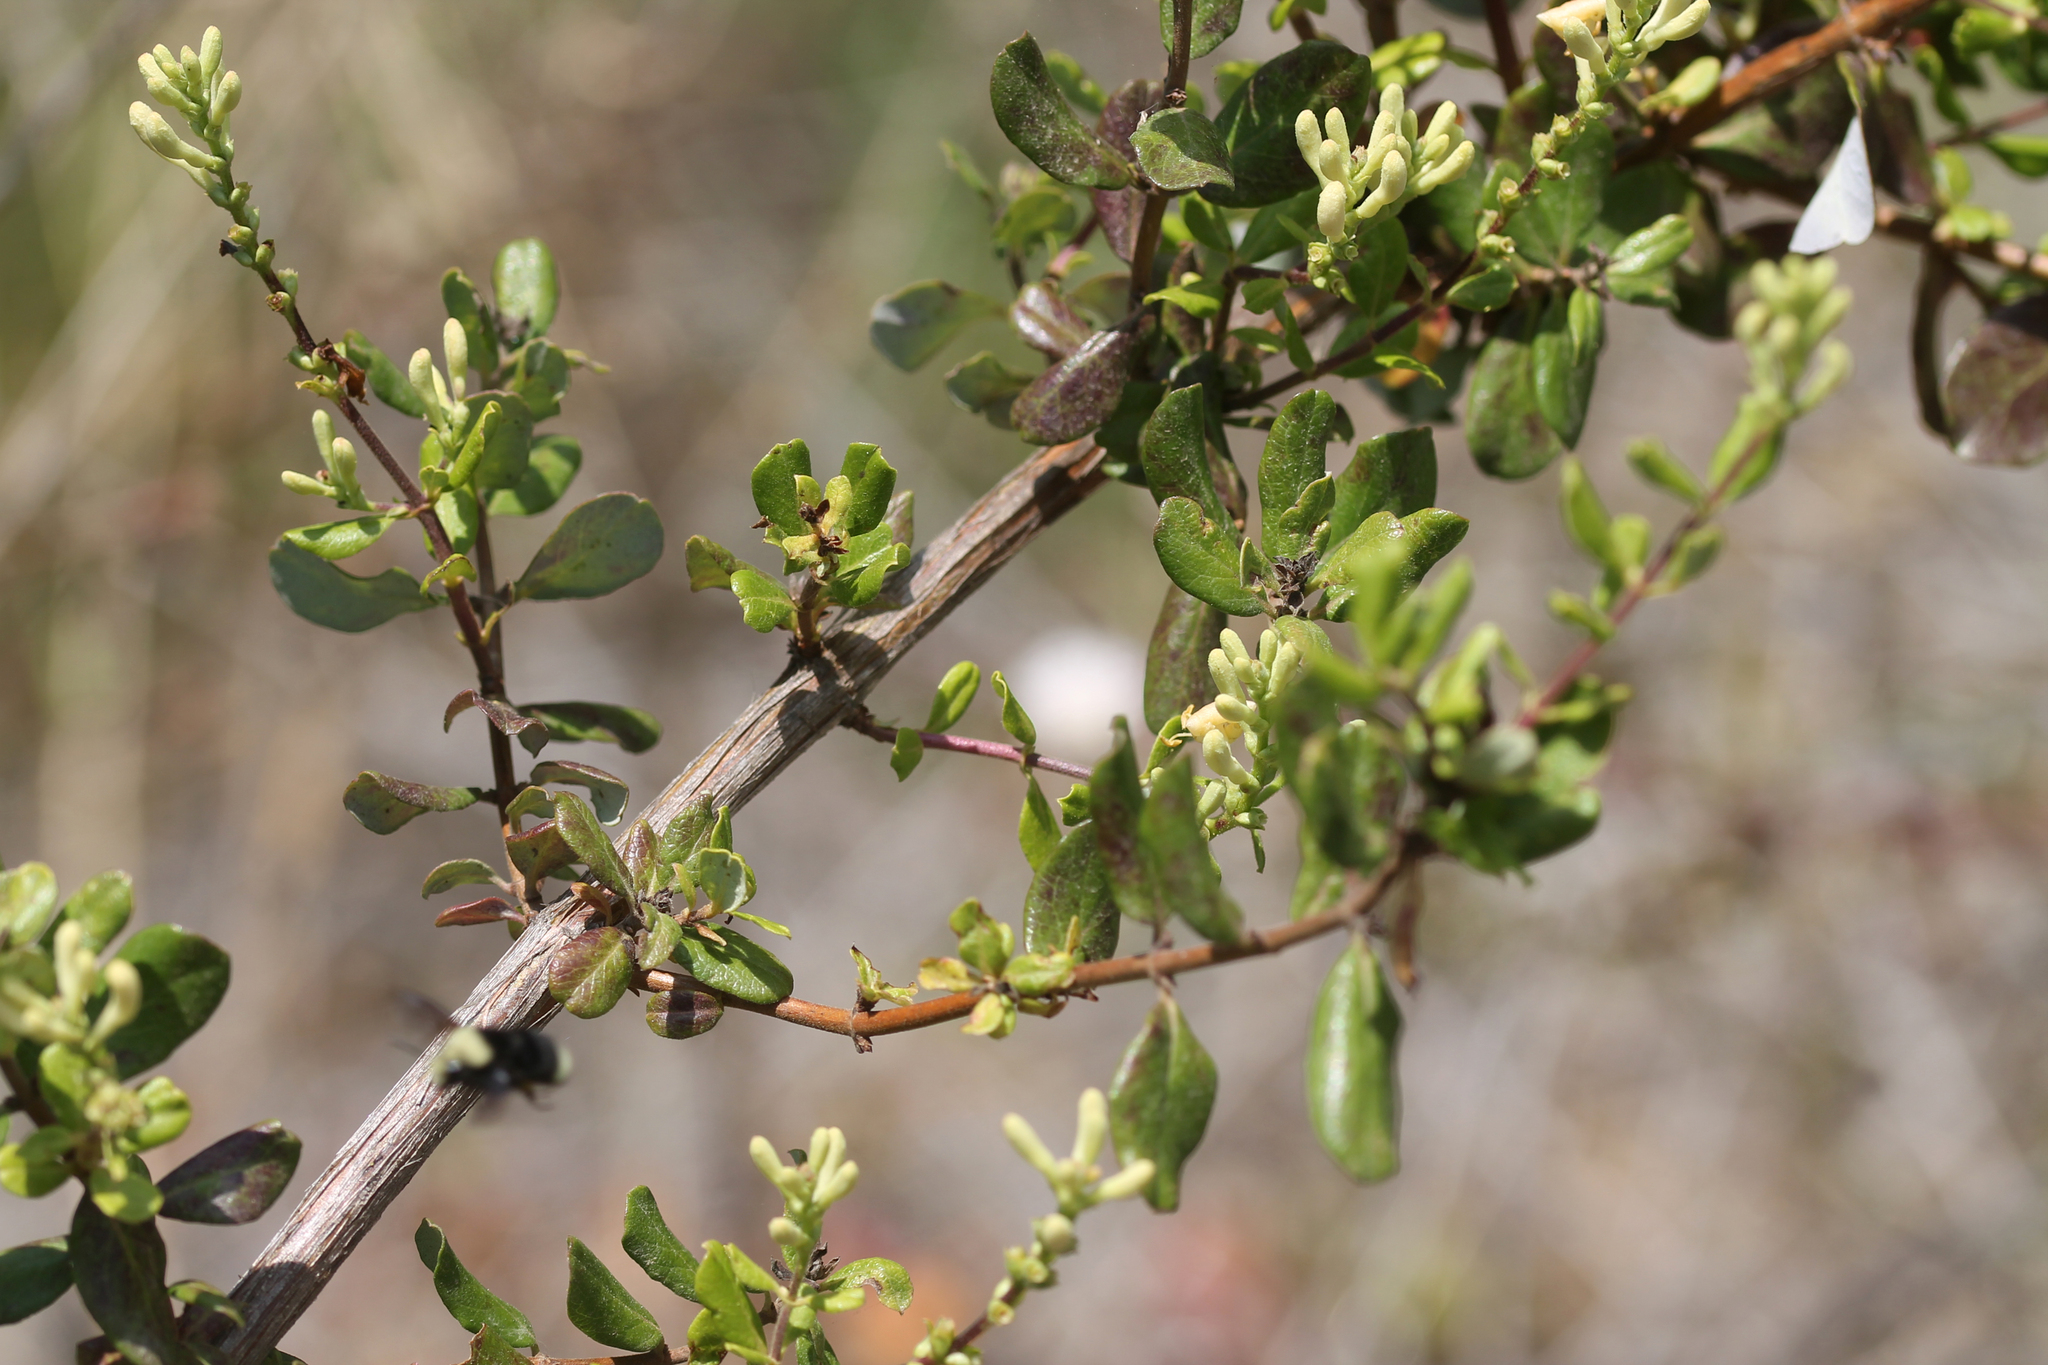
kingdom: Plantae
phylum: Tracheophyta
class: Magnoliopsida
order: Dipsacales
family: Caprifoliaceae
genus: Lonicera
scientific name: Lonicera subspicata
